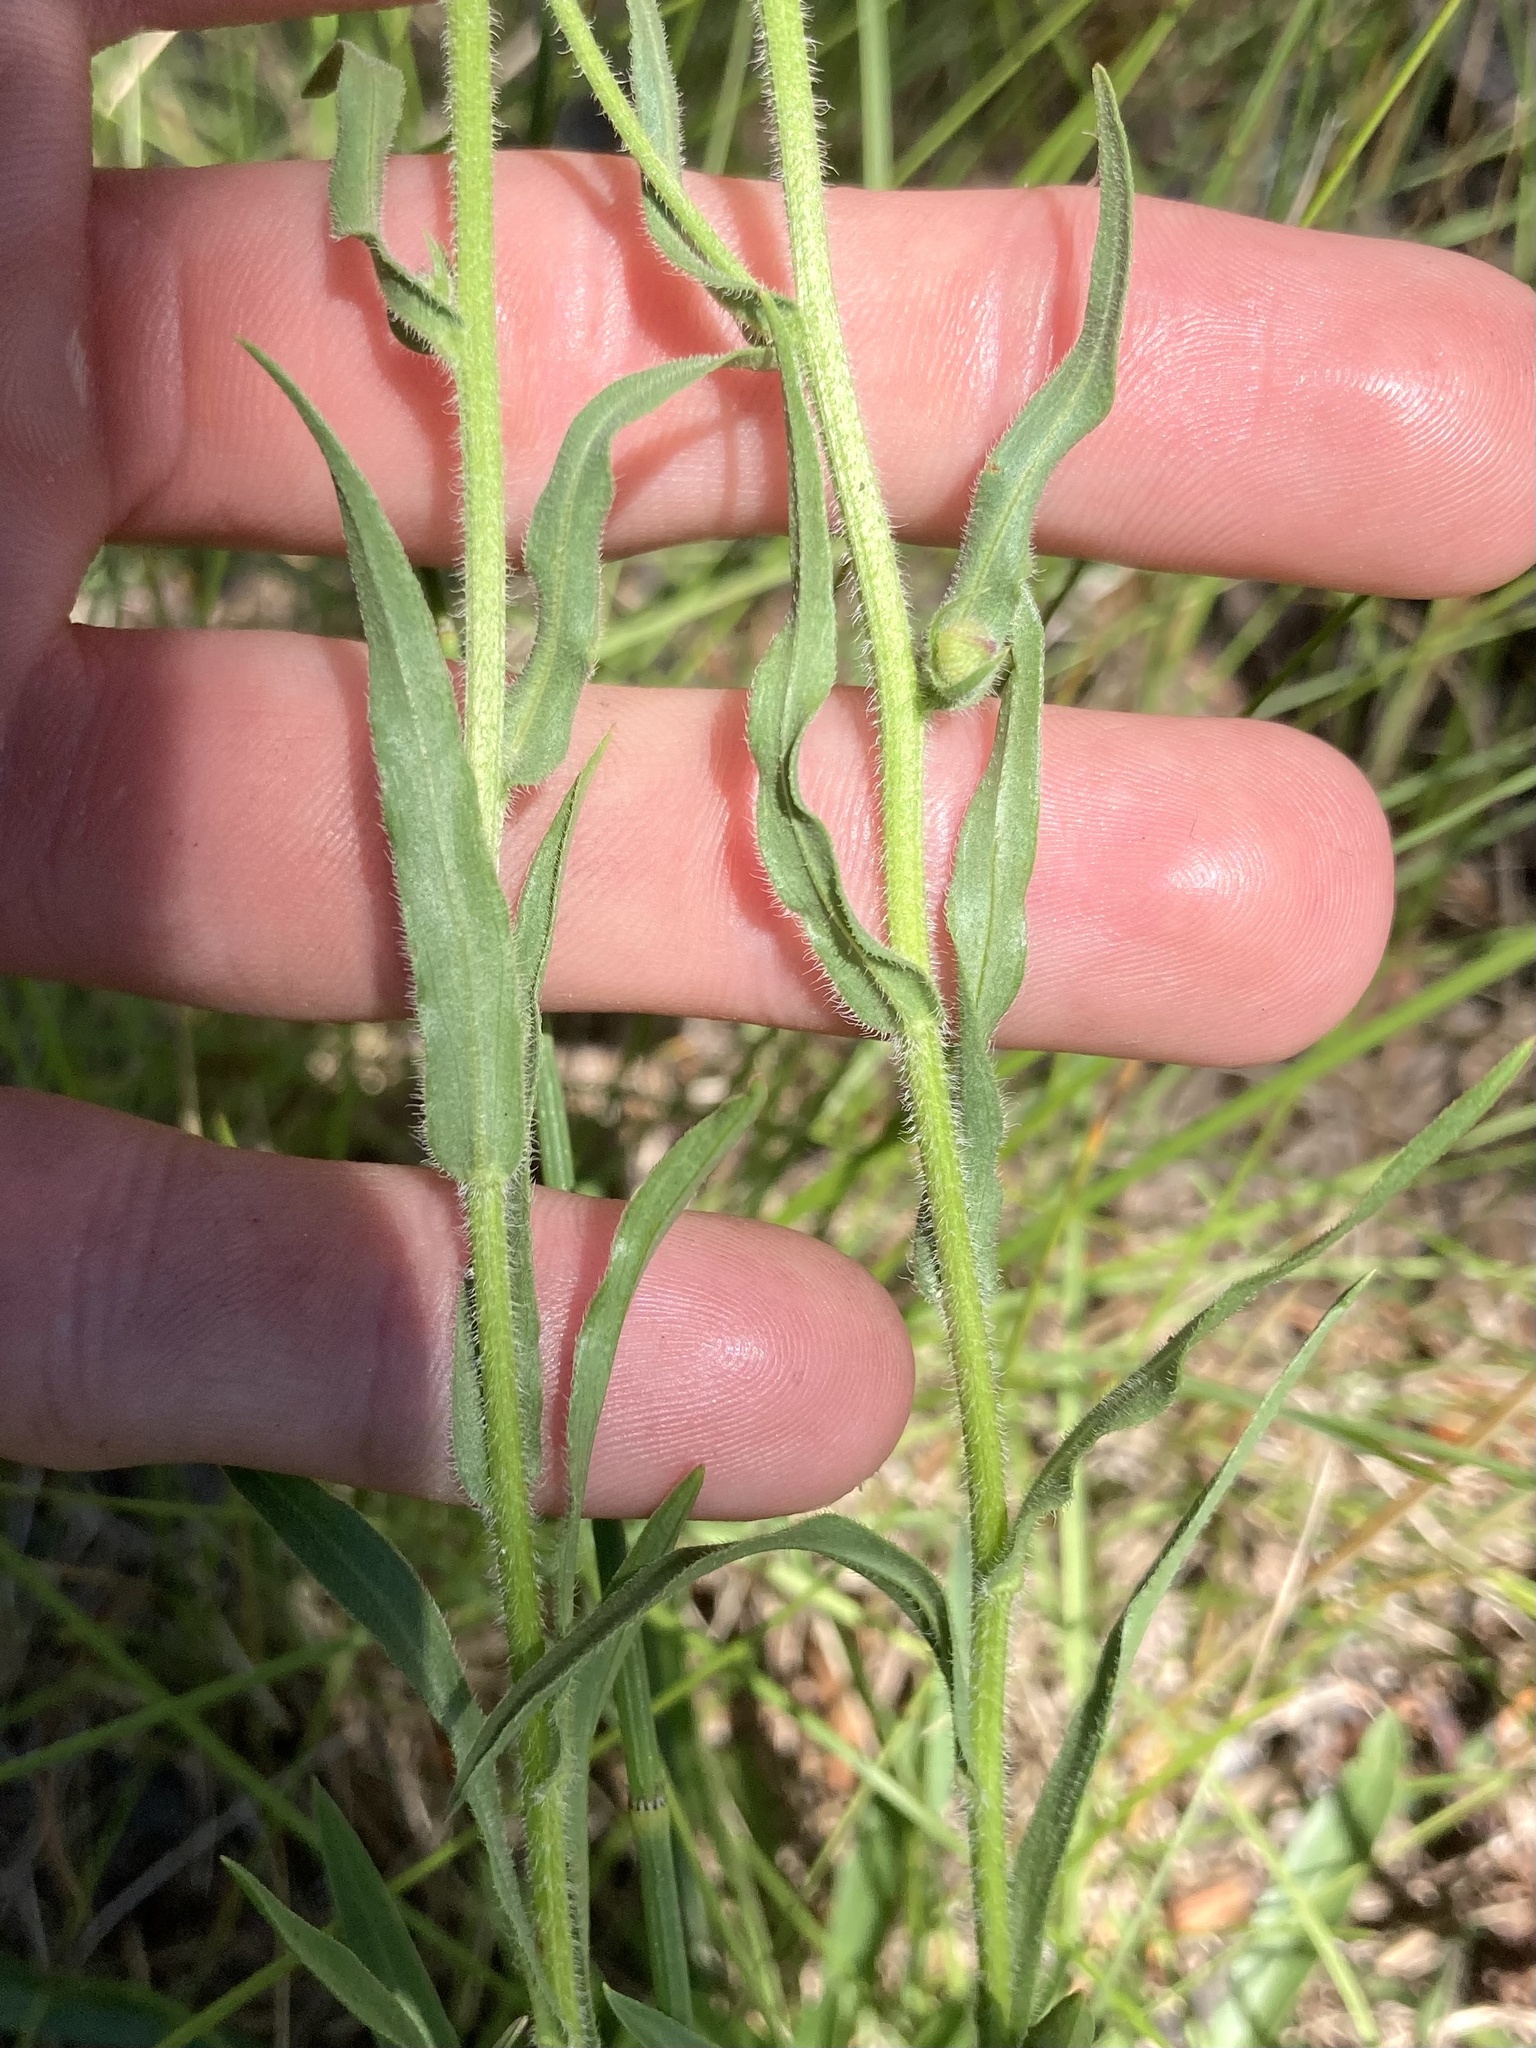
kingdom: Plantae
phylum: Tracheophyta
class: Magnoliopsida
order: Asterales
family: Asteraceae
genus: Erigeron
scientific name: Erigeron glabellus
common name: Smooth fleabane
